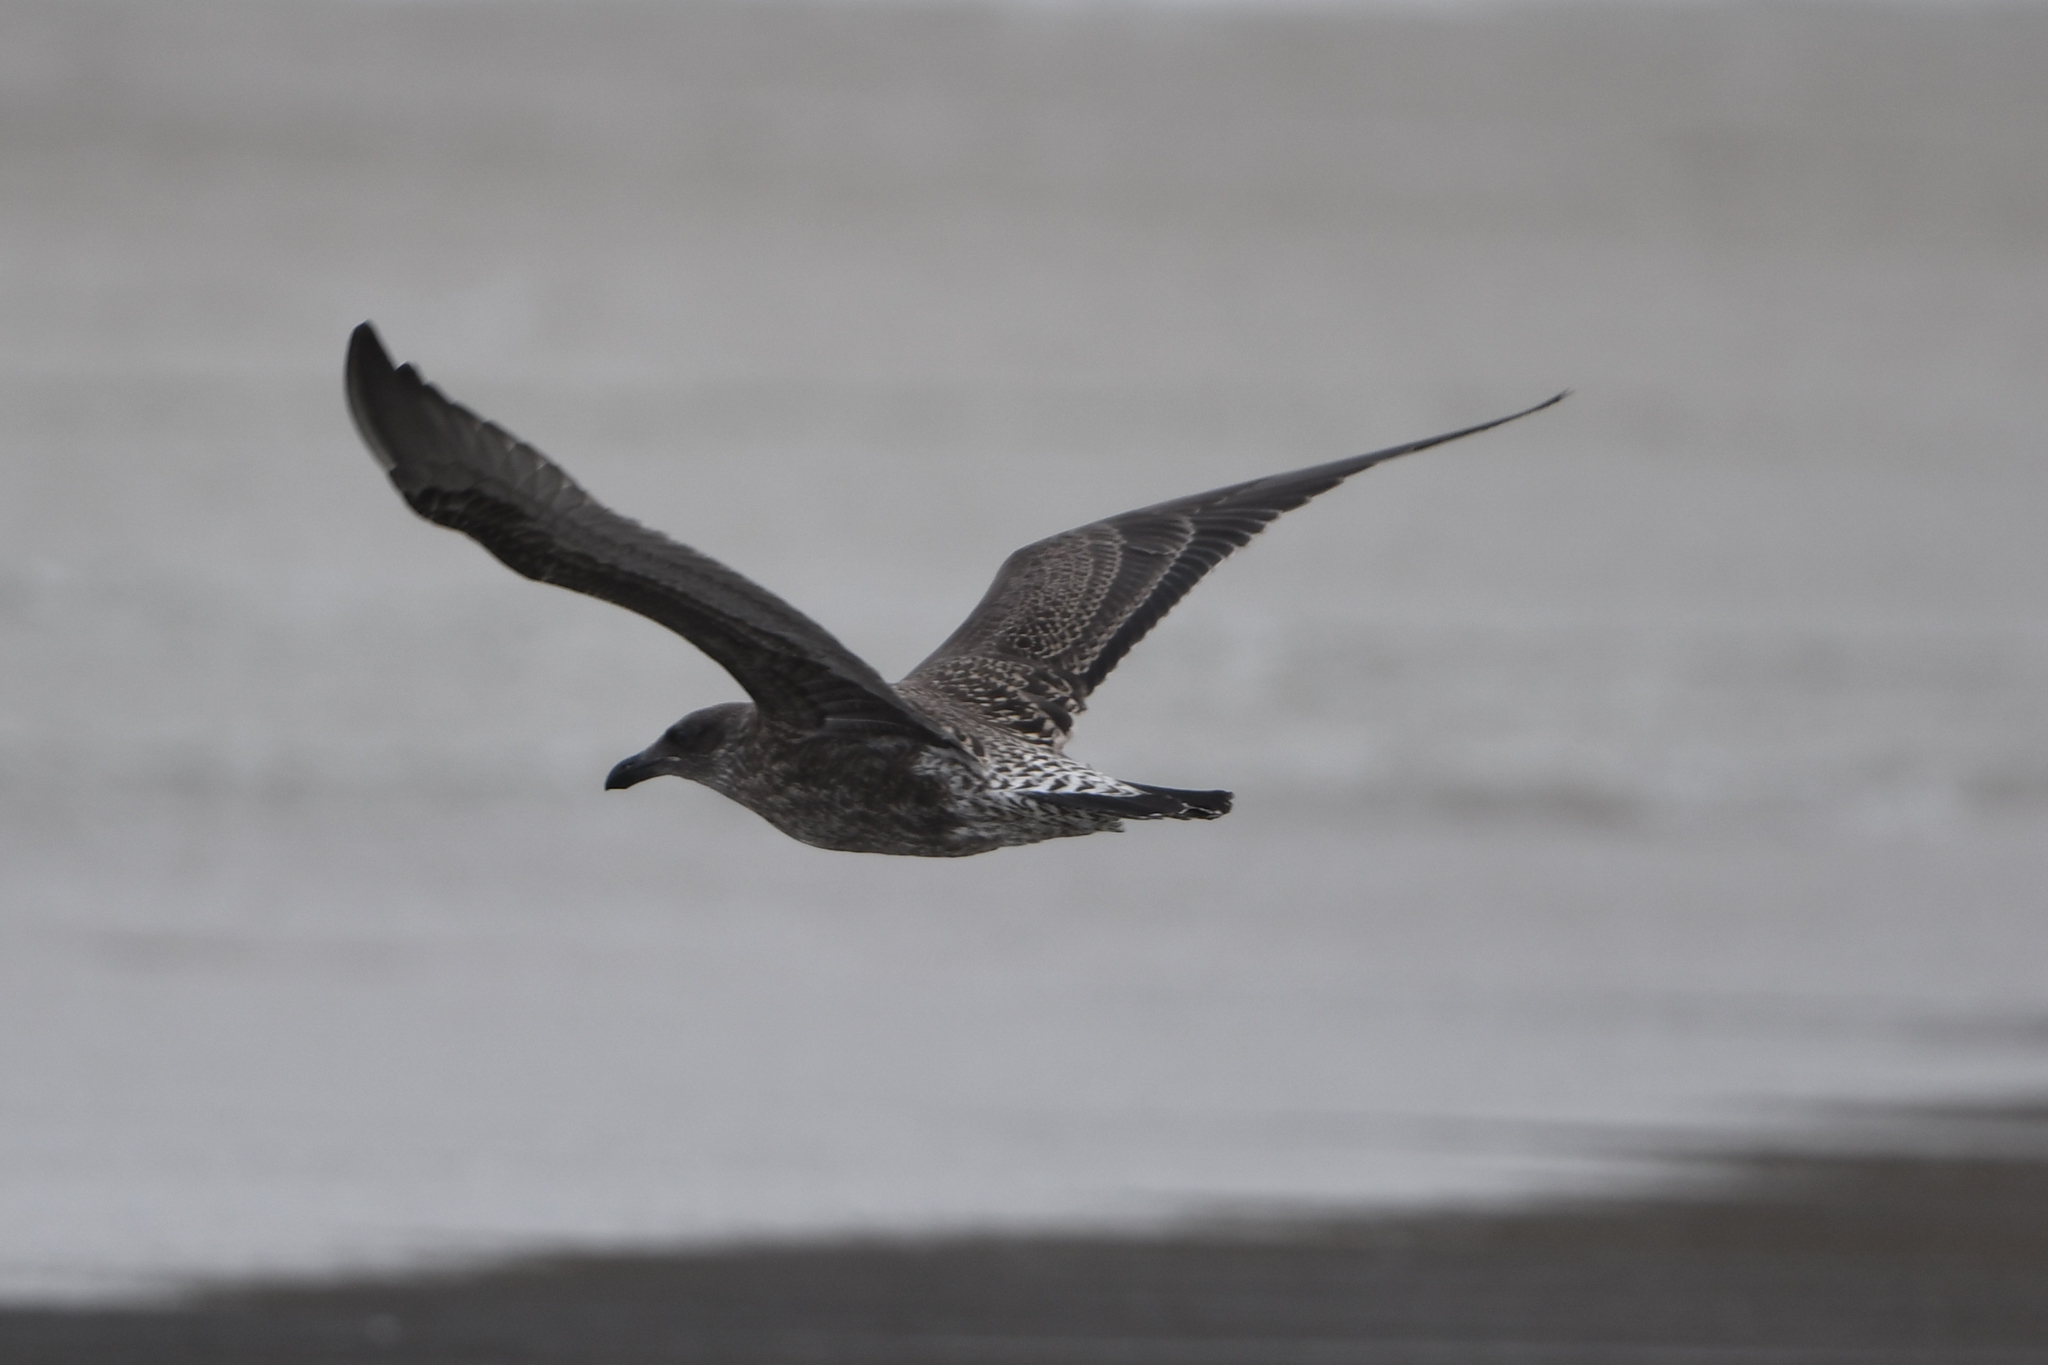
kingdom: Animalia
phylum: Chordata
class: Aves
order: Charadriiformes
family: Laridae
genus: Larus
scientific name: Larus dominicanus
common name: Kelp gull
